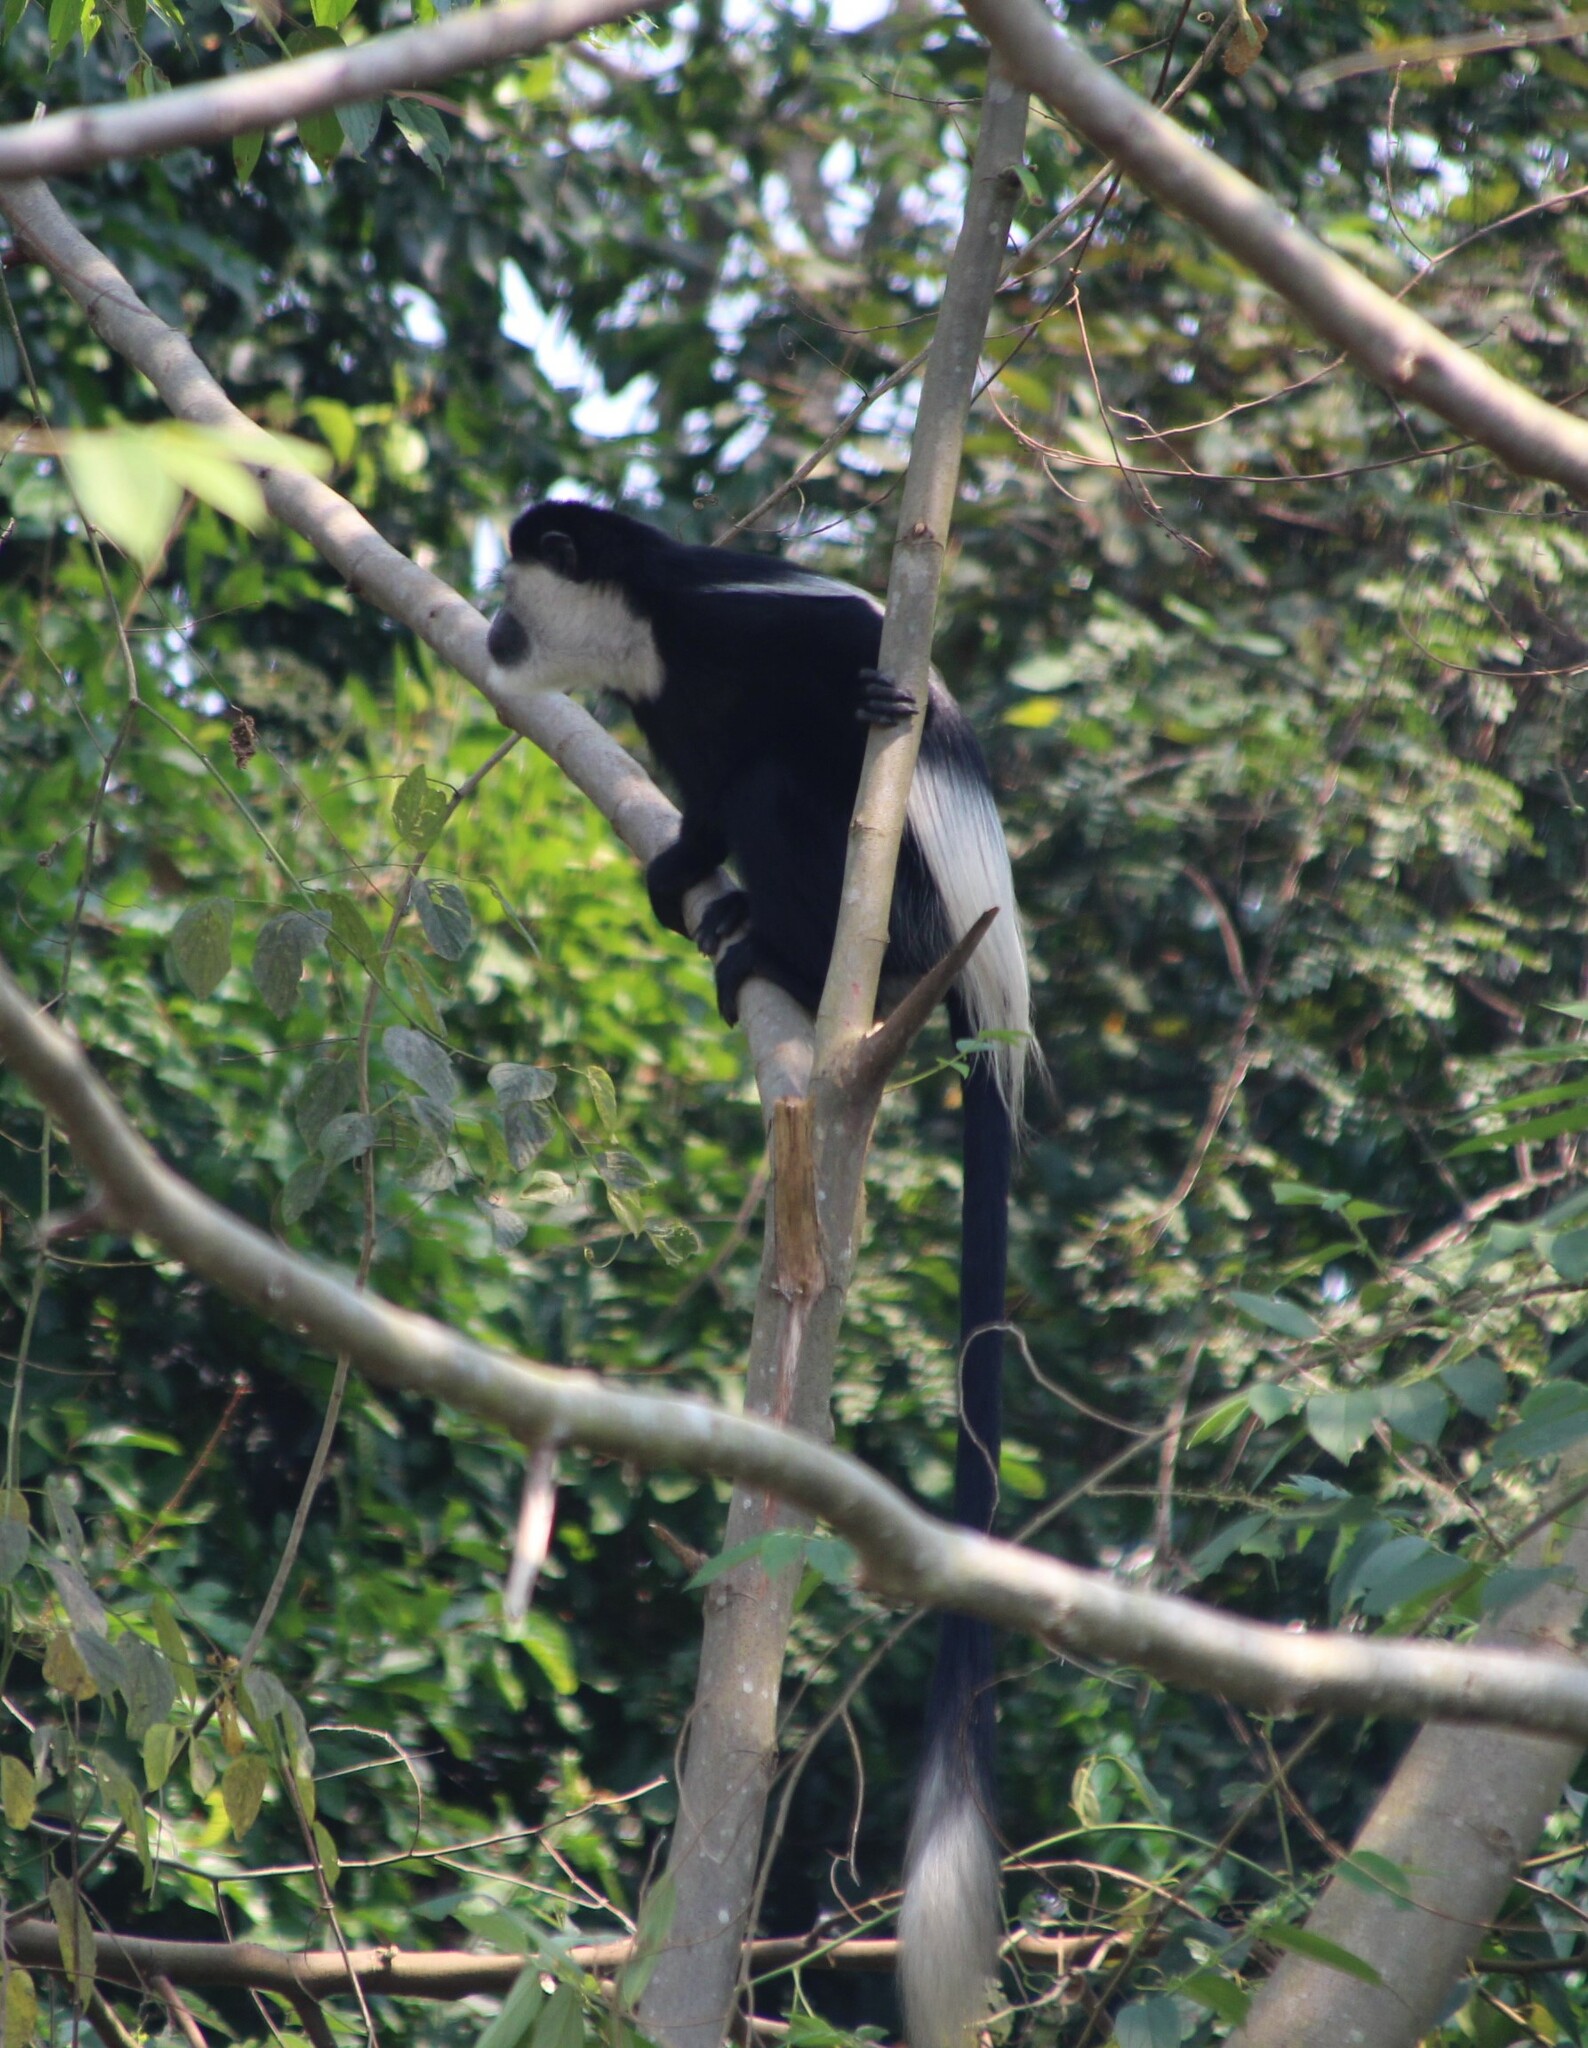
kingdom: Animalia
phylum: Chordata
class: Mammalia
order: Primates
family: Cercopithecidae
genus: Colobus
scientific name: Colobus guereza
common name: Mantled guereza
